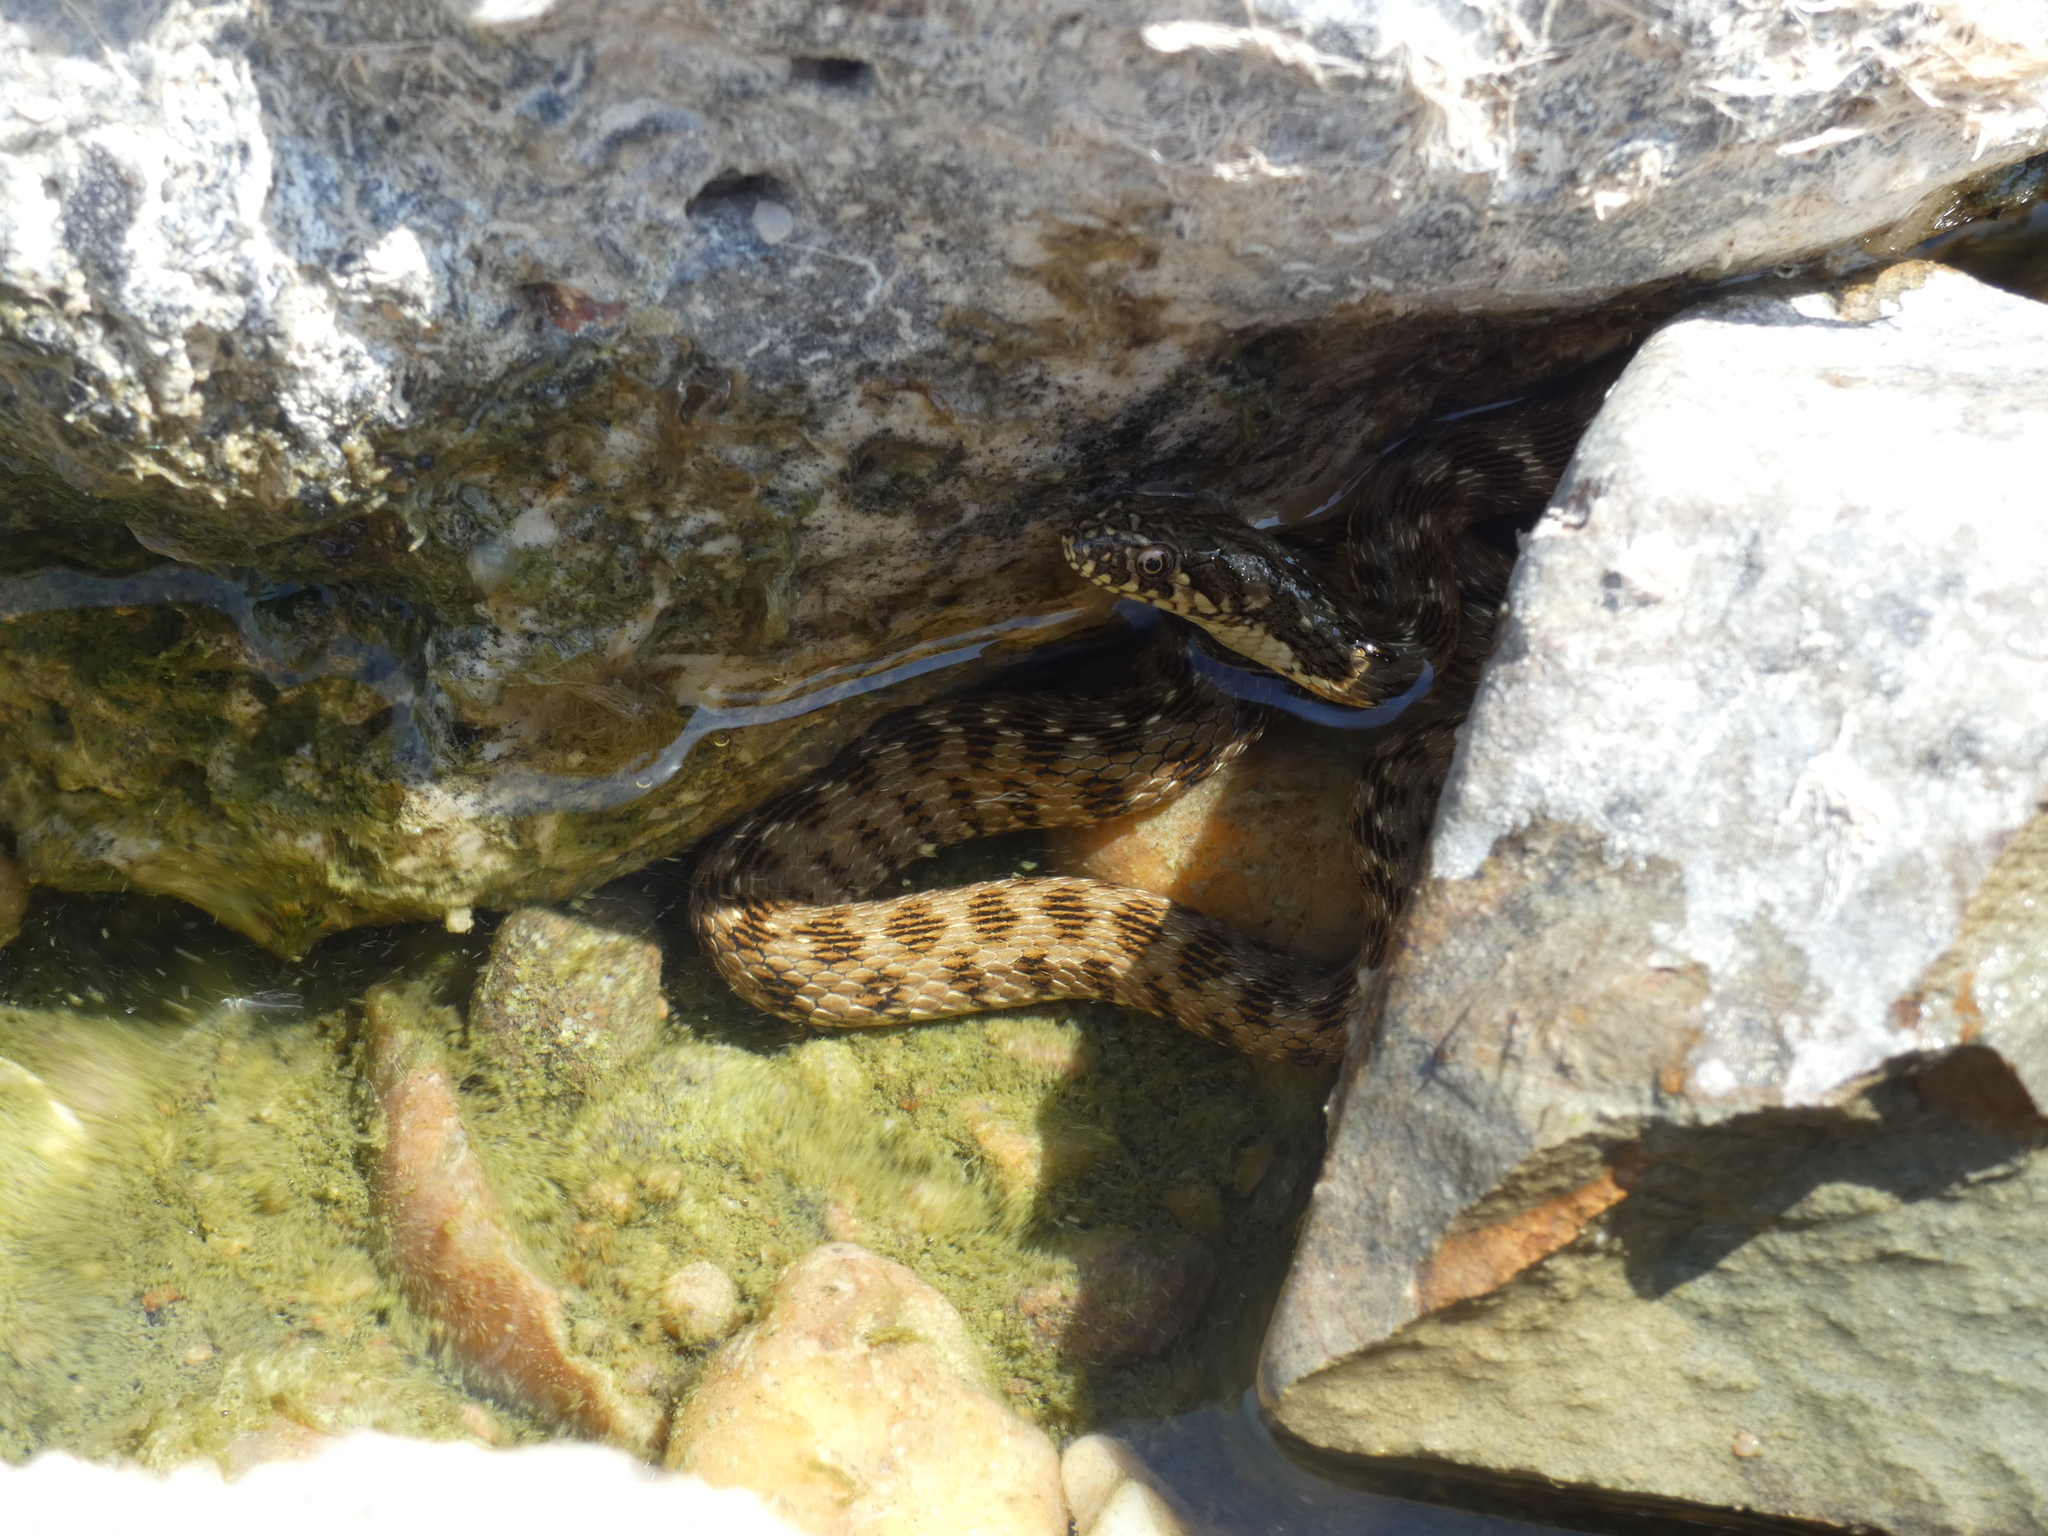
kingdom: Animalia
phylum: Chordata
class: Squamata
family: Colubridae
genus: Natrix
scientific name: Natrix maura
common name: Viperine water snake
